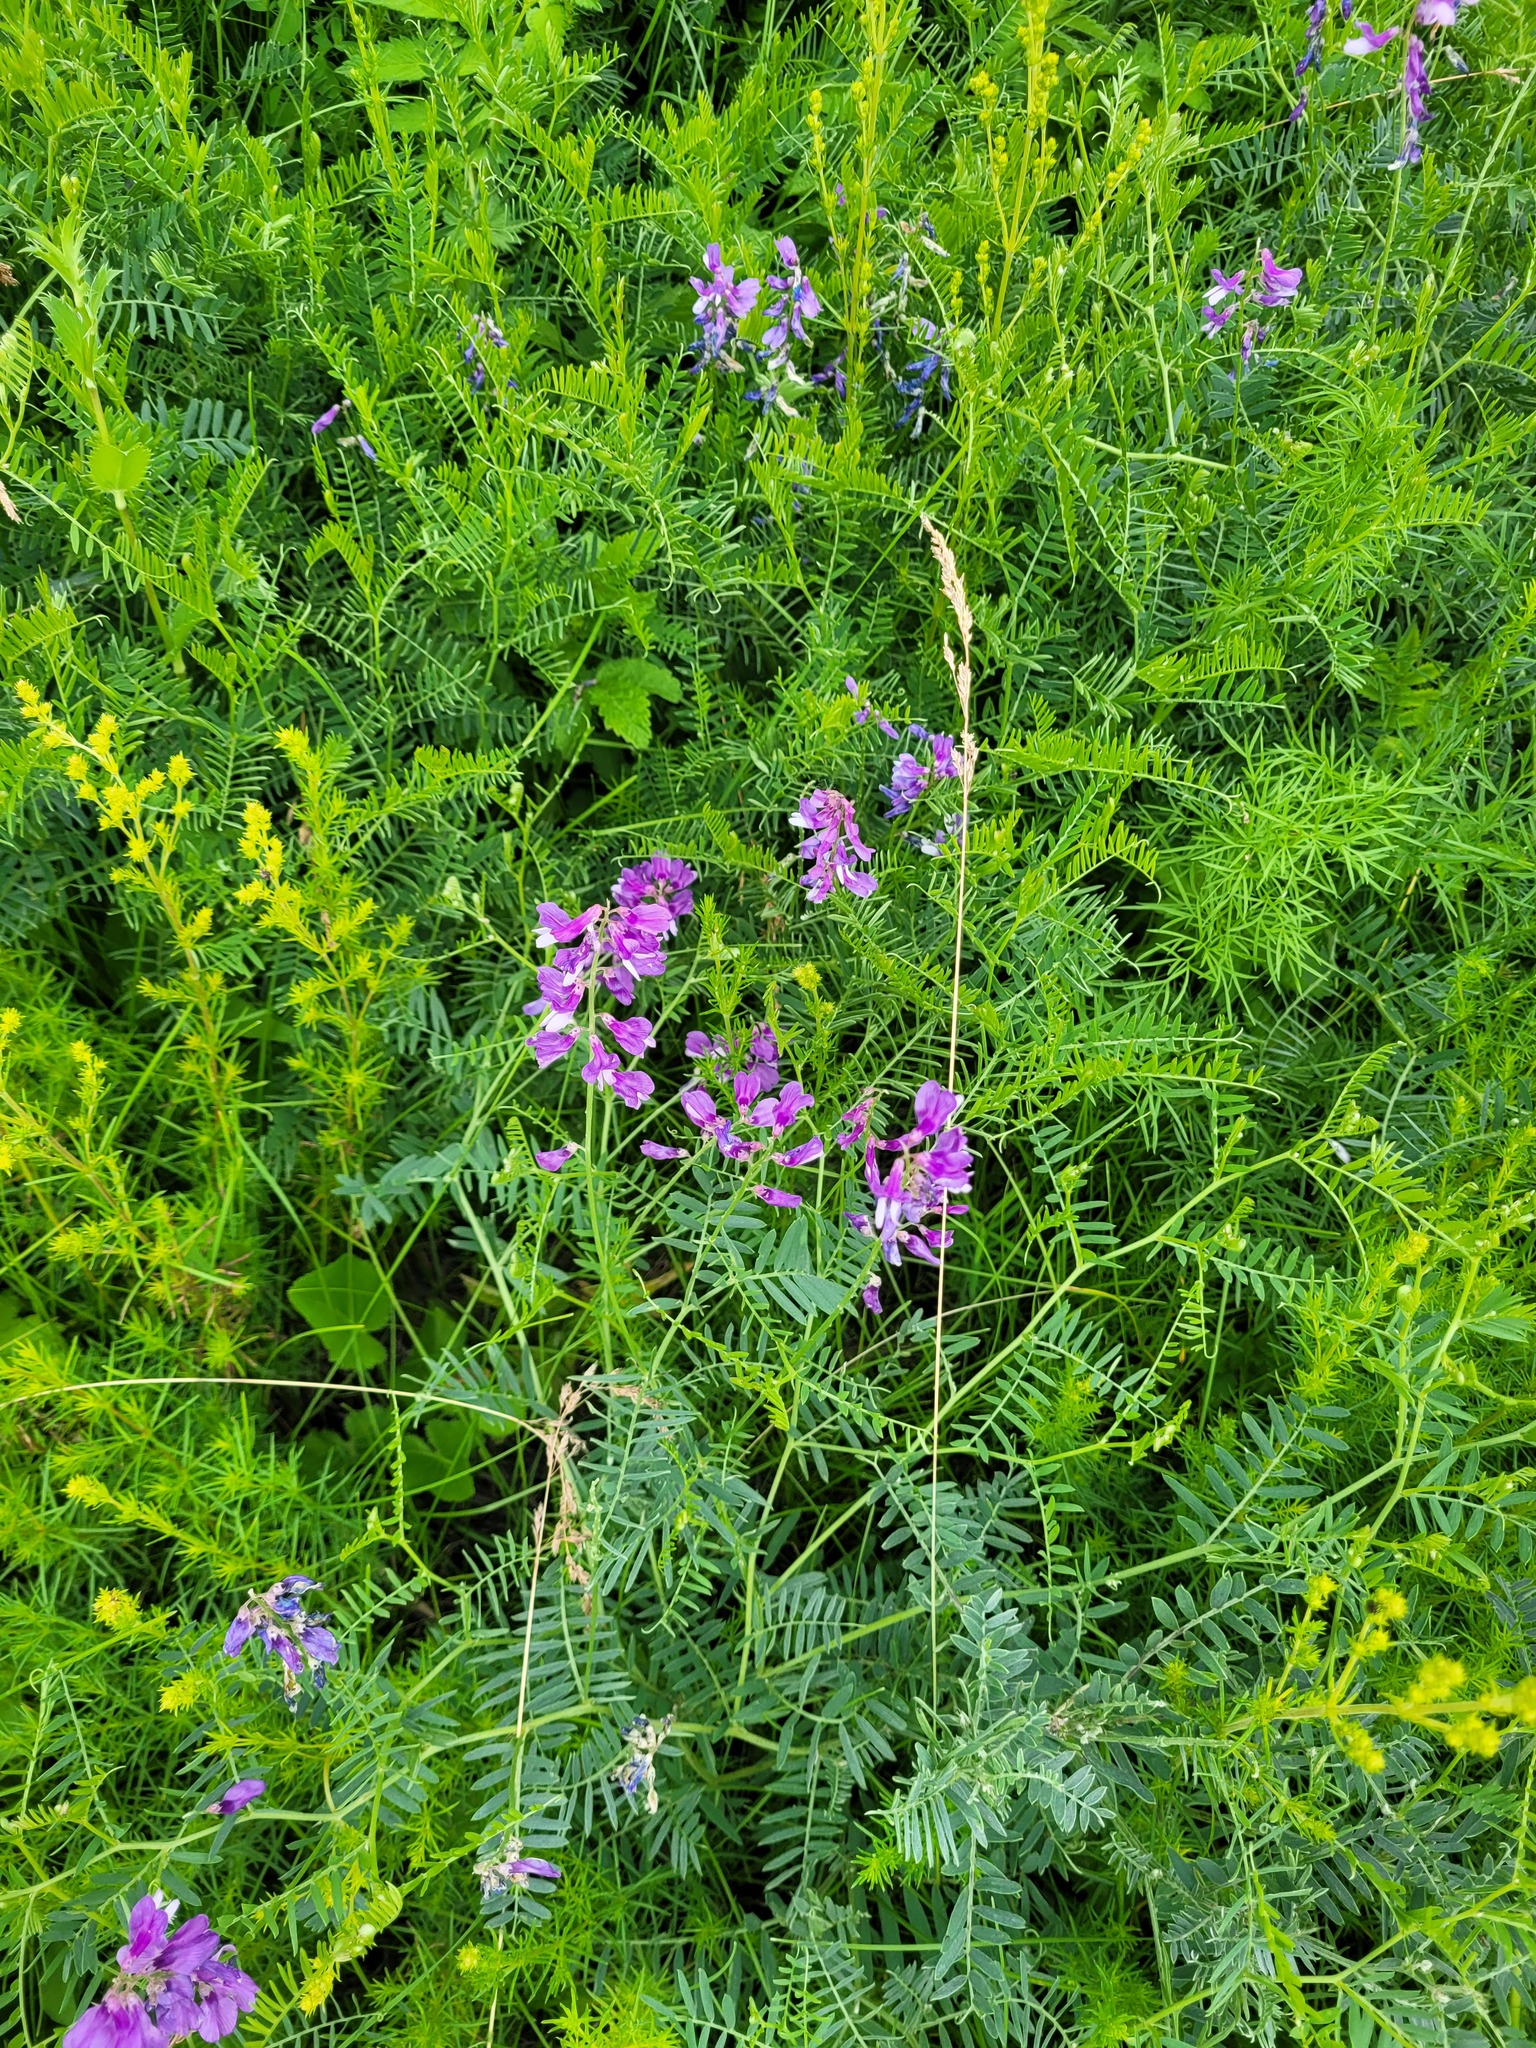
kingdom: Plantae
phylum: Tracheophyta
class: Magnoliopsida
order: Fabales
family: Fabaceae
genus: Vicia
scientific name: Vicia tenuifolia
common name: Fine-leaved vetch
